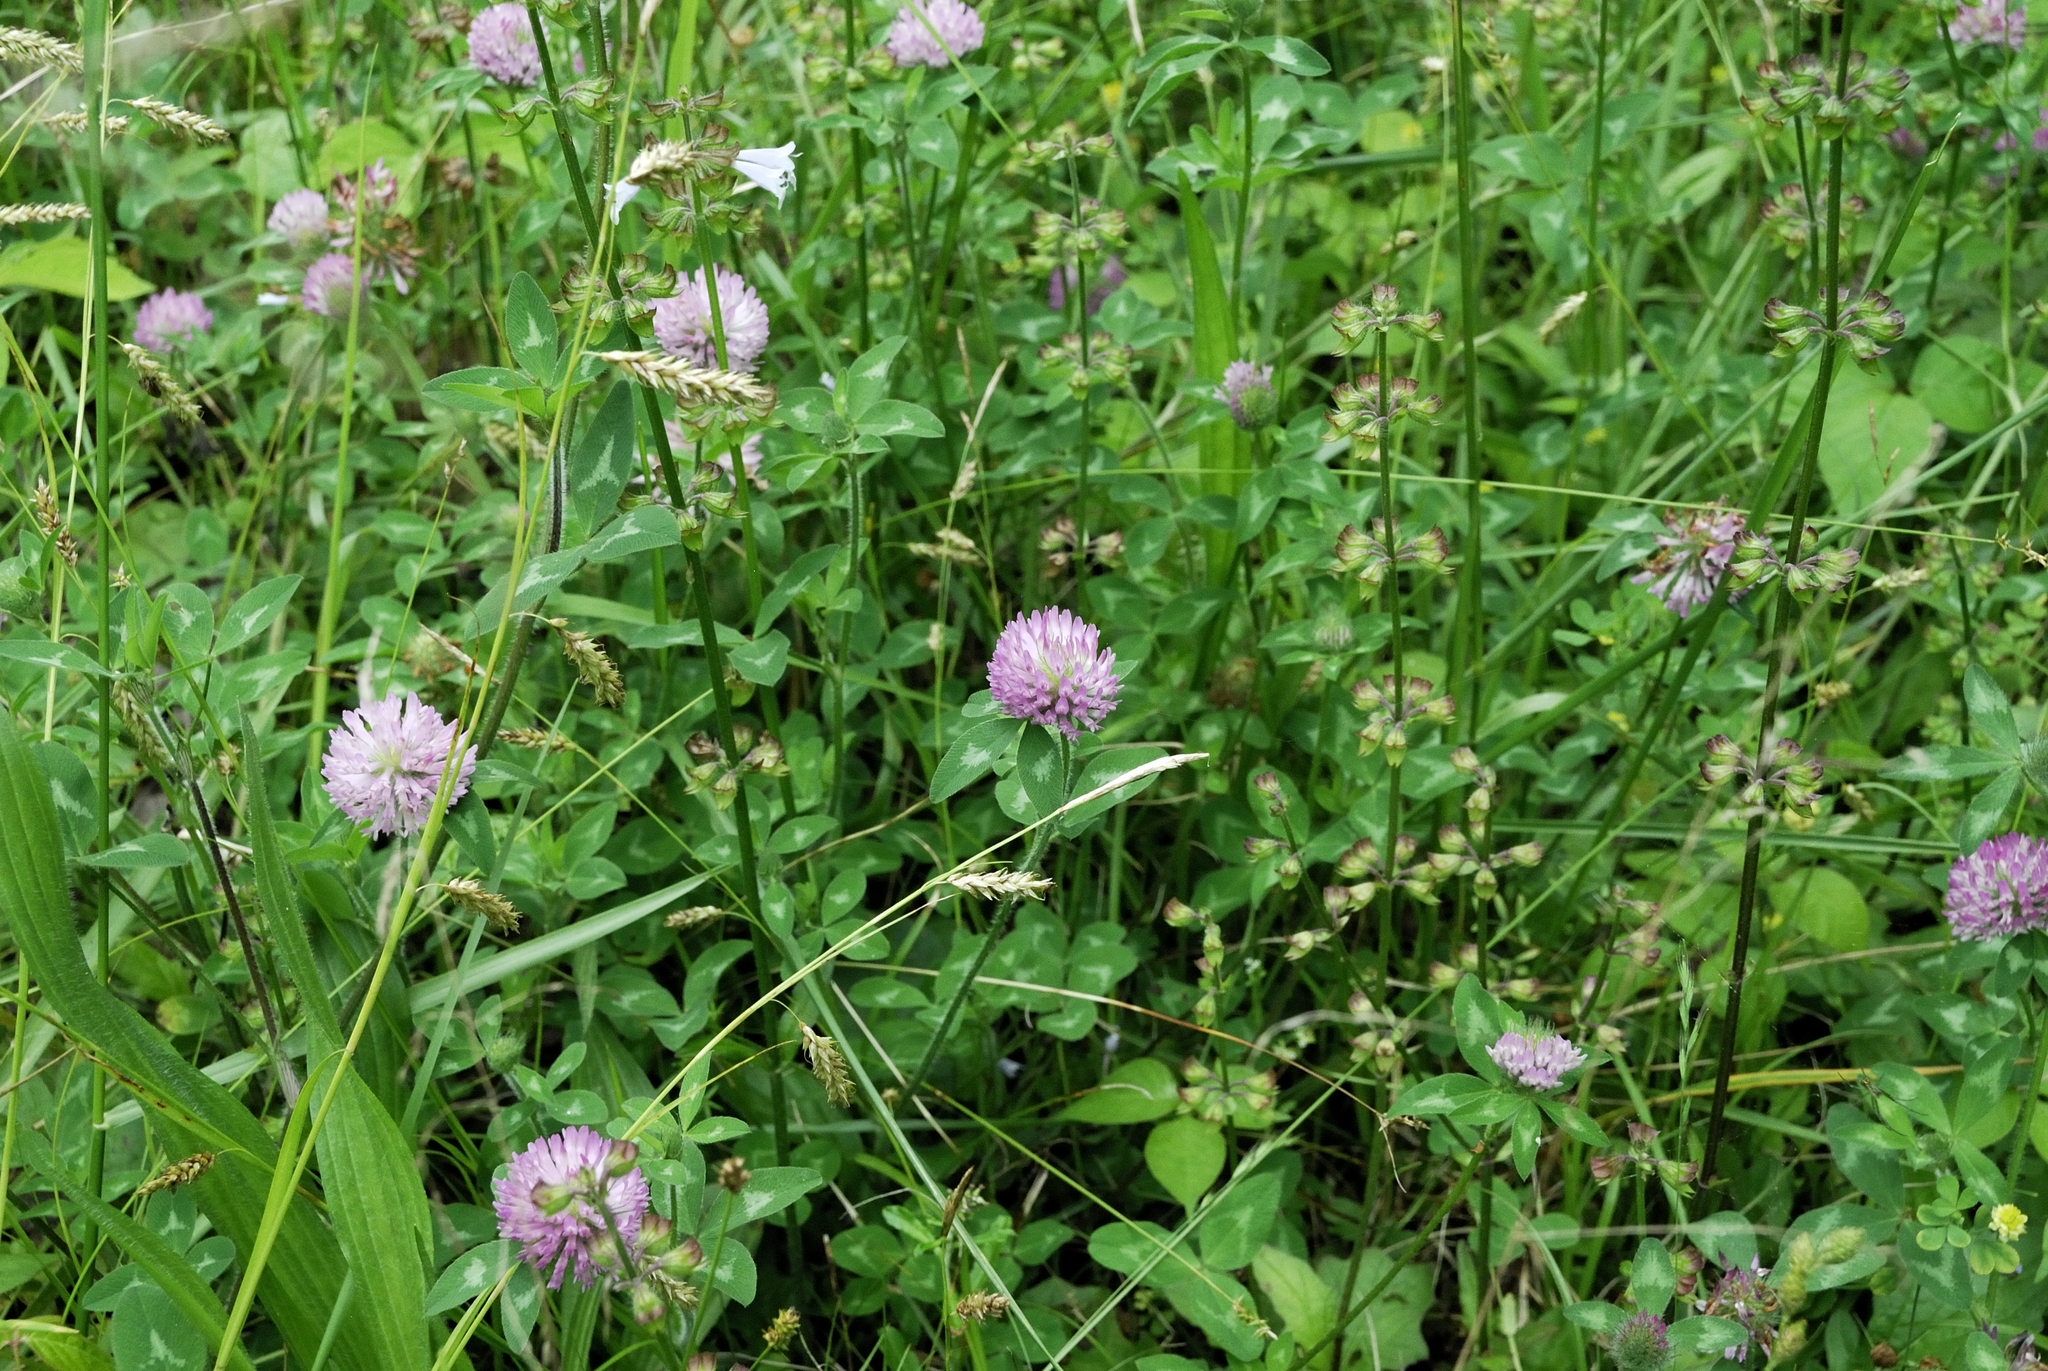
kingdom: Plantae
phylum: Tracheophyta
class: Magnoliopsida
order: Fabales
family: Fabaceae
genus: Trifolium
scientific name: Trifolium pratense
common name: Red clover
